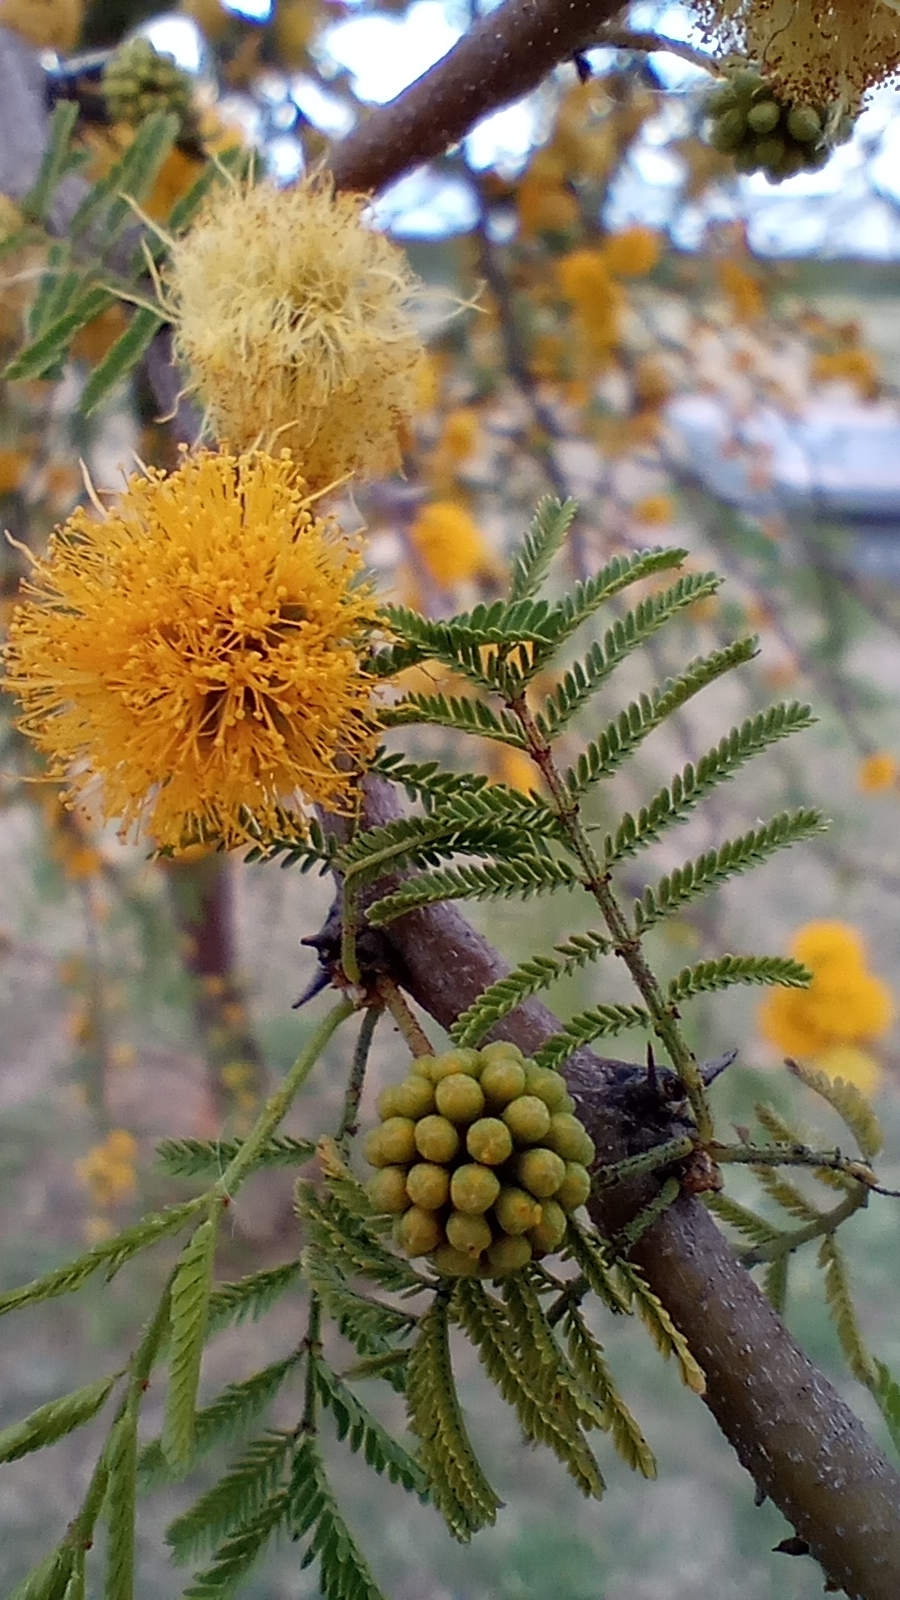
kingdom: Plantae
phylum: Tracheophyta
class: Magnoliopsida
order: Fabales
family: Fabaceae
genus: Vachellia
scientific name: Vachellia caven
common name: Roman cassie
